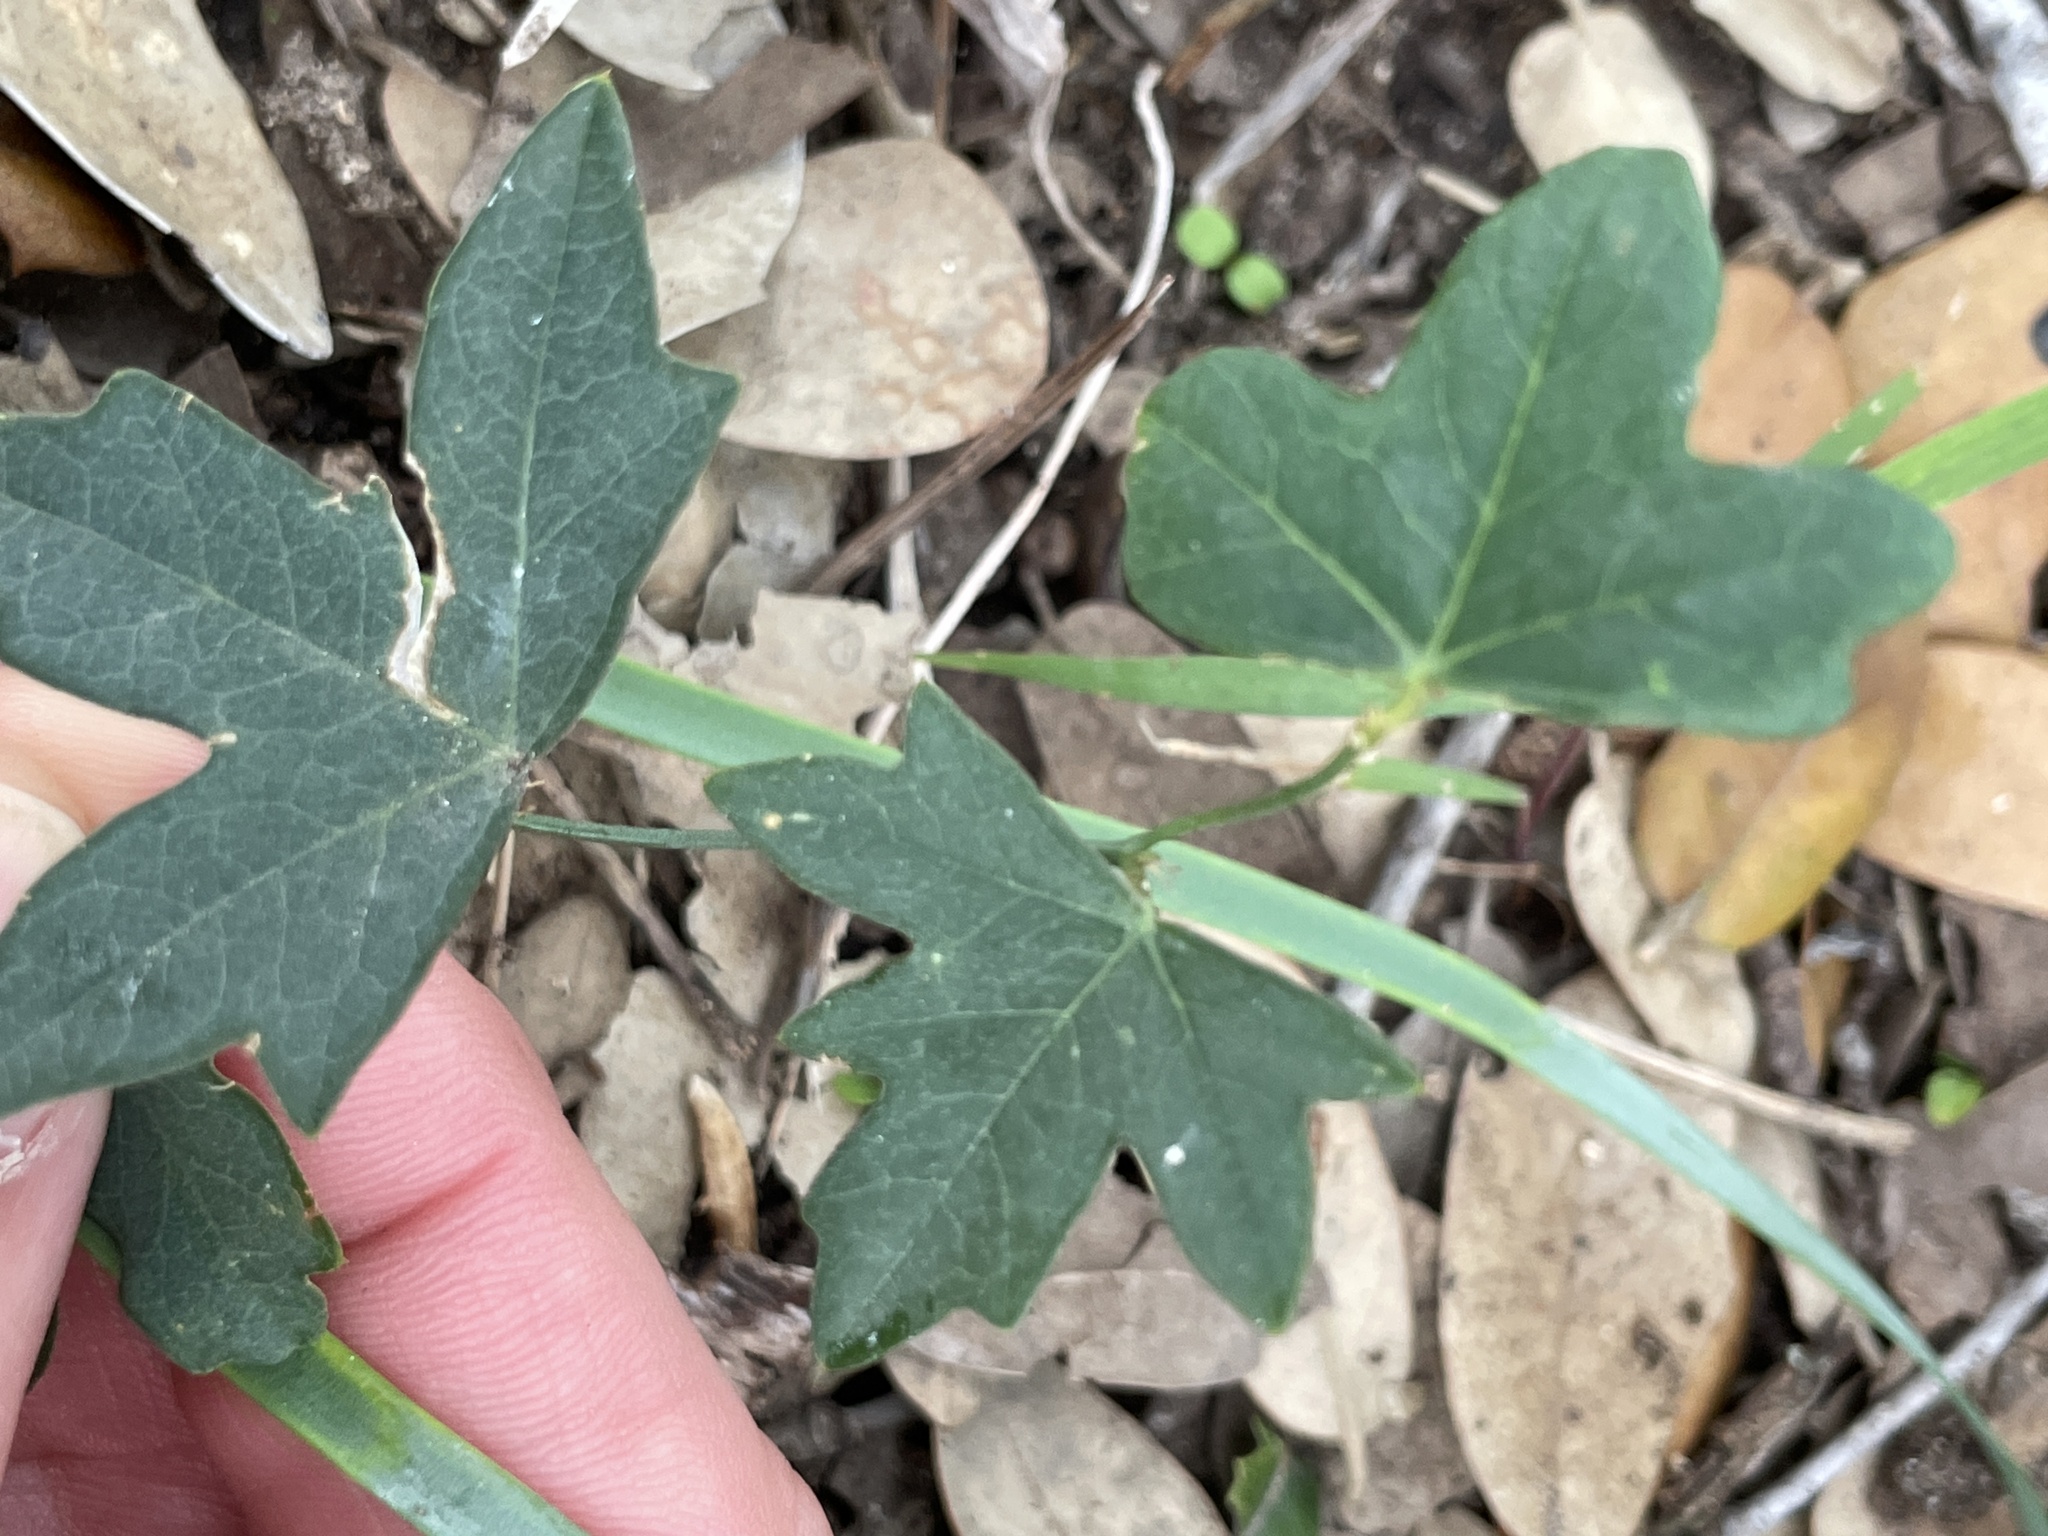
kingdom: Plantae
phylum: Tracheophyta
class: Magnoliopsida
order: Malpighiales
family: Passifloraceae
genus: Passiflora
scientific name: Passiflora tenuiloba
